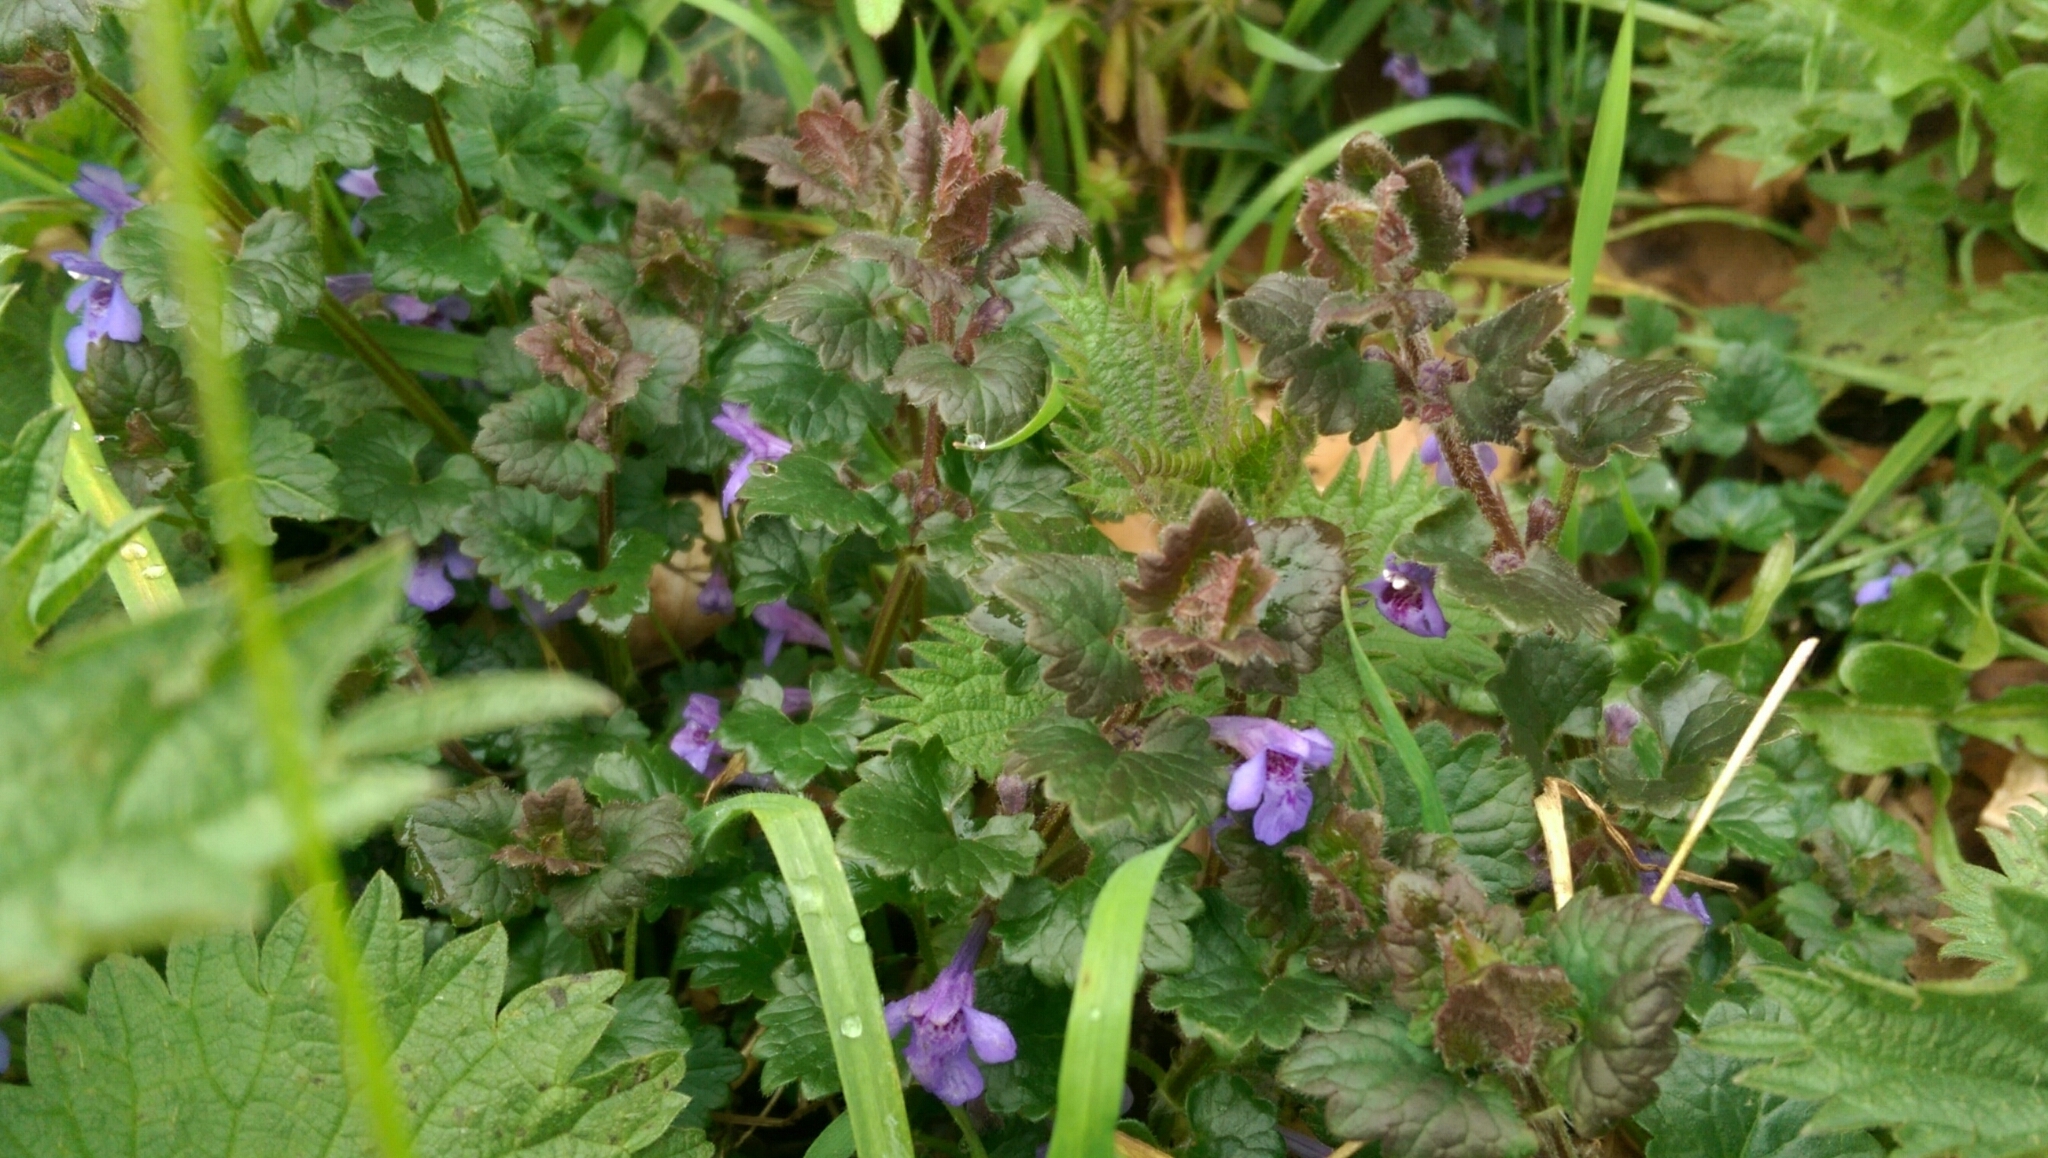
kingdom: Plantae
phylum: Tracheophyta
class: Magnoliopsida
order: Lamiales
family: Lamiaceae
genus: Glechoma
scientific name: Glechoma hederacea
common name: Ground ivy
